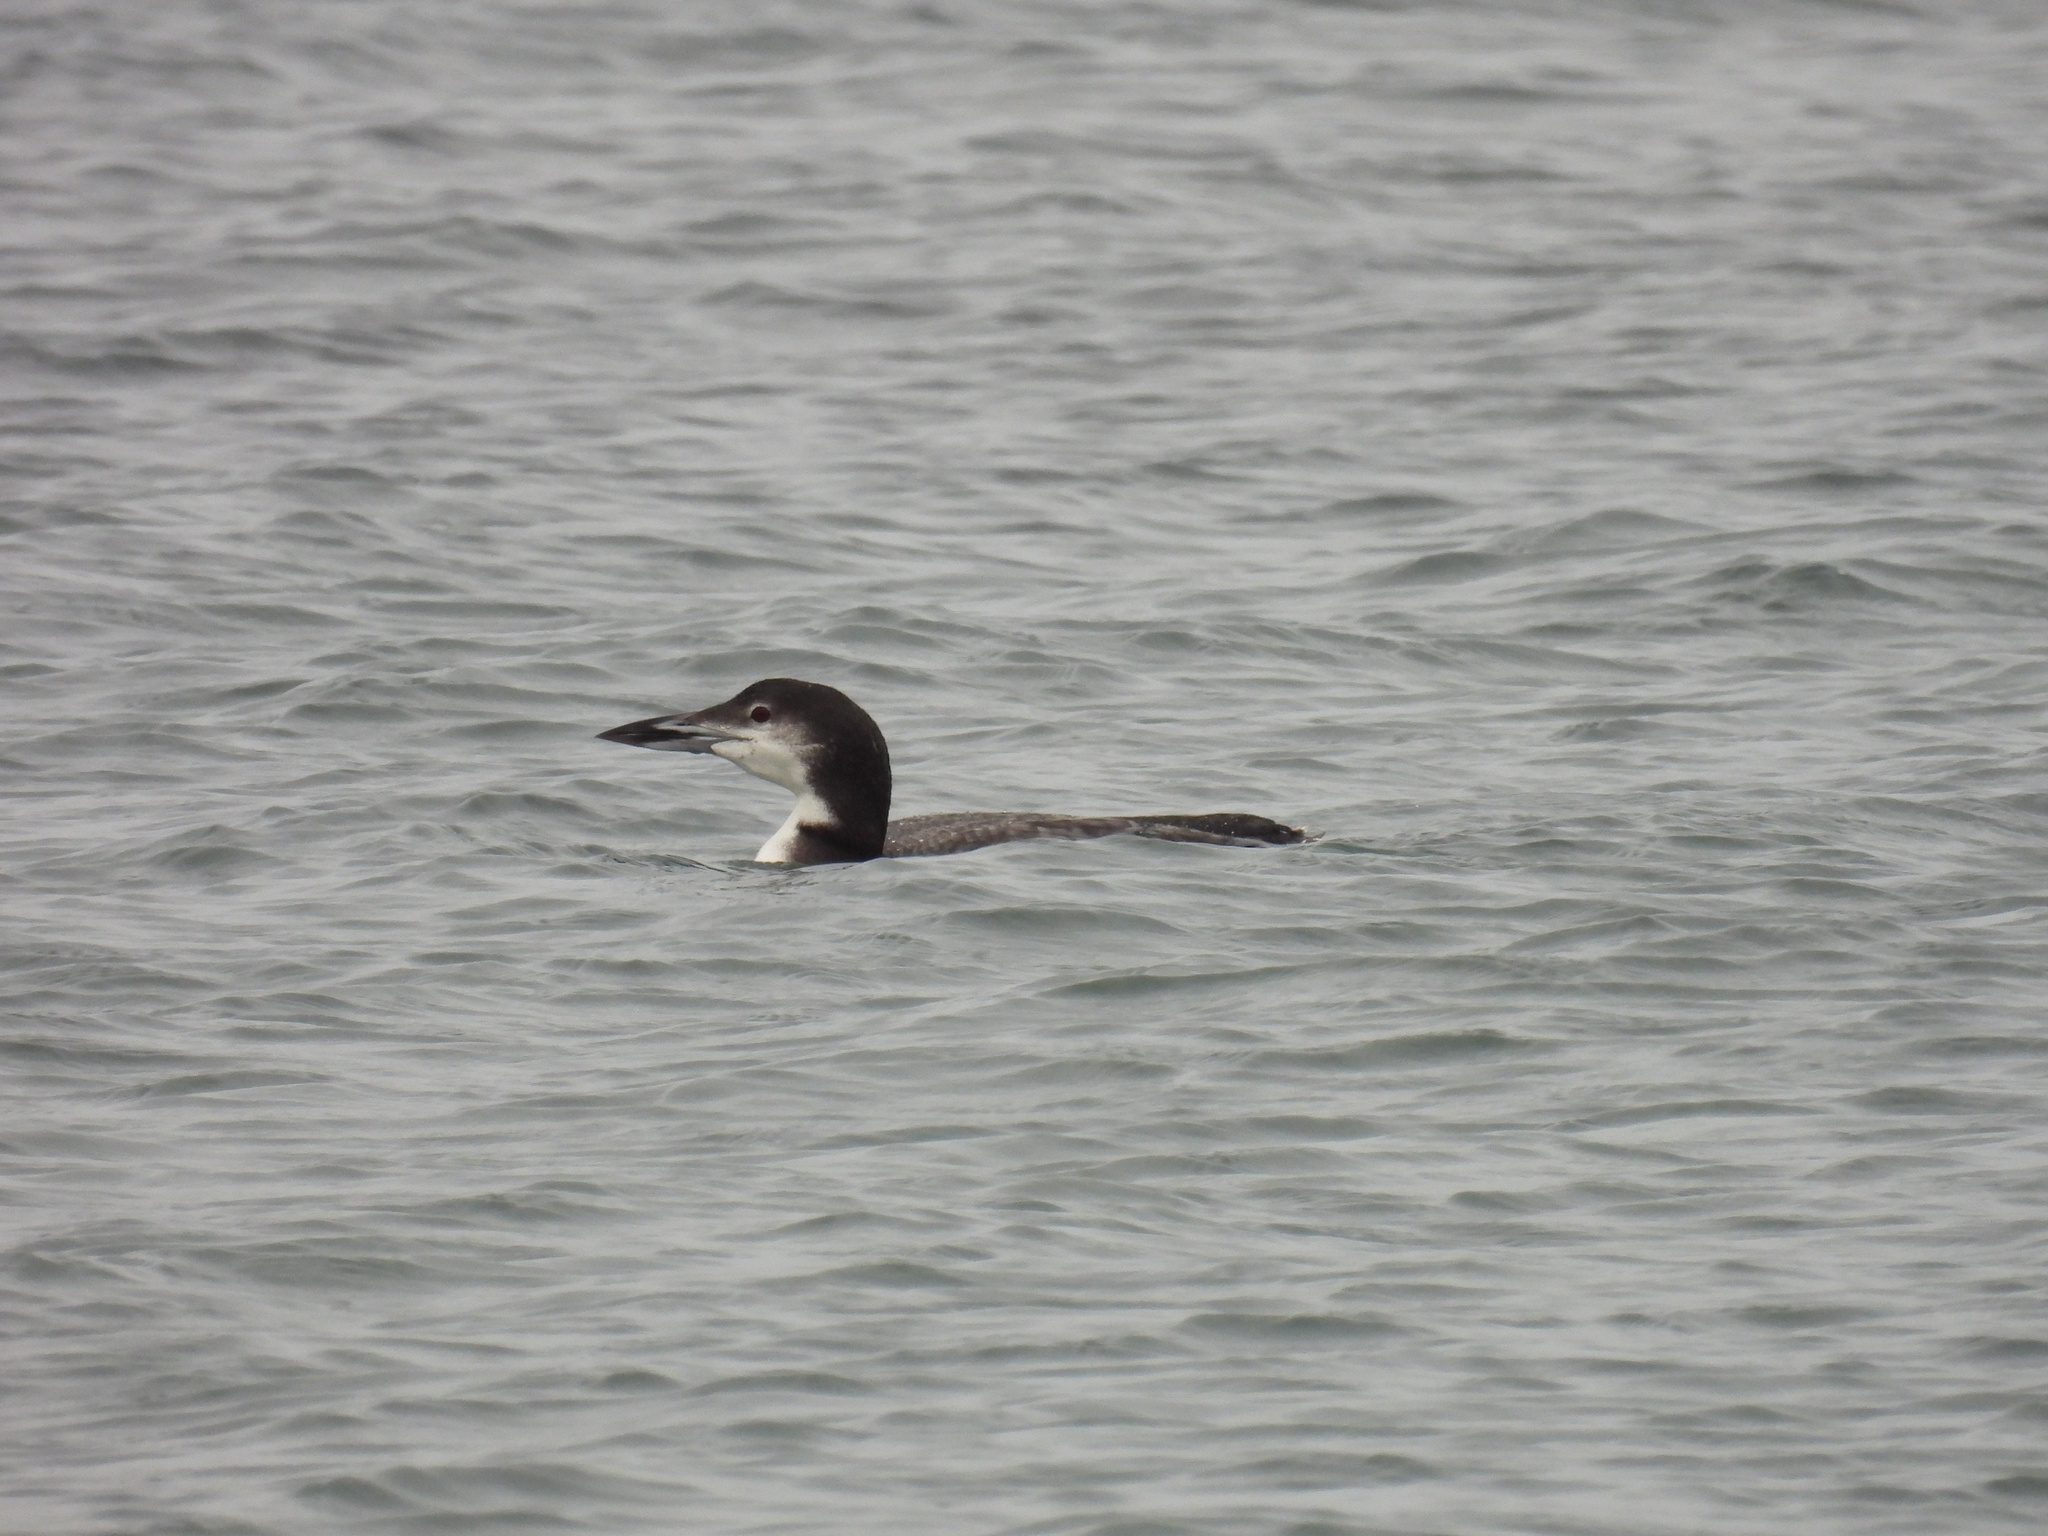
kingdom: Animalia
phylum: Chordata
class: Aves
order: Gaviiformes
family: Gaviidae
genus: Gavia
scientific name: Gavia immer
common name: Common loon
